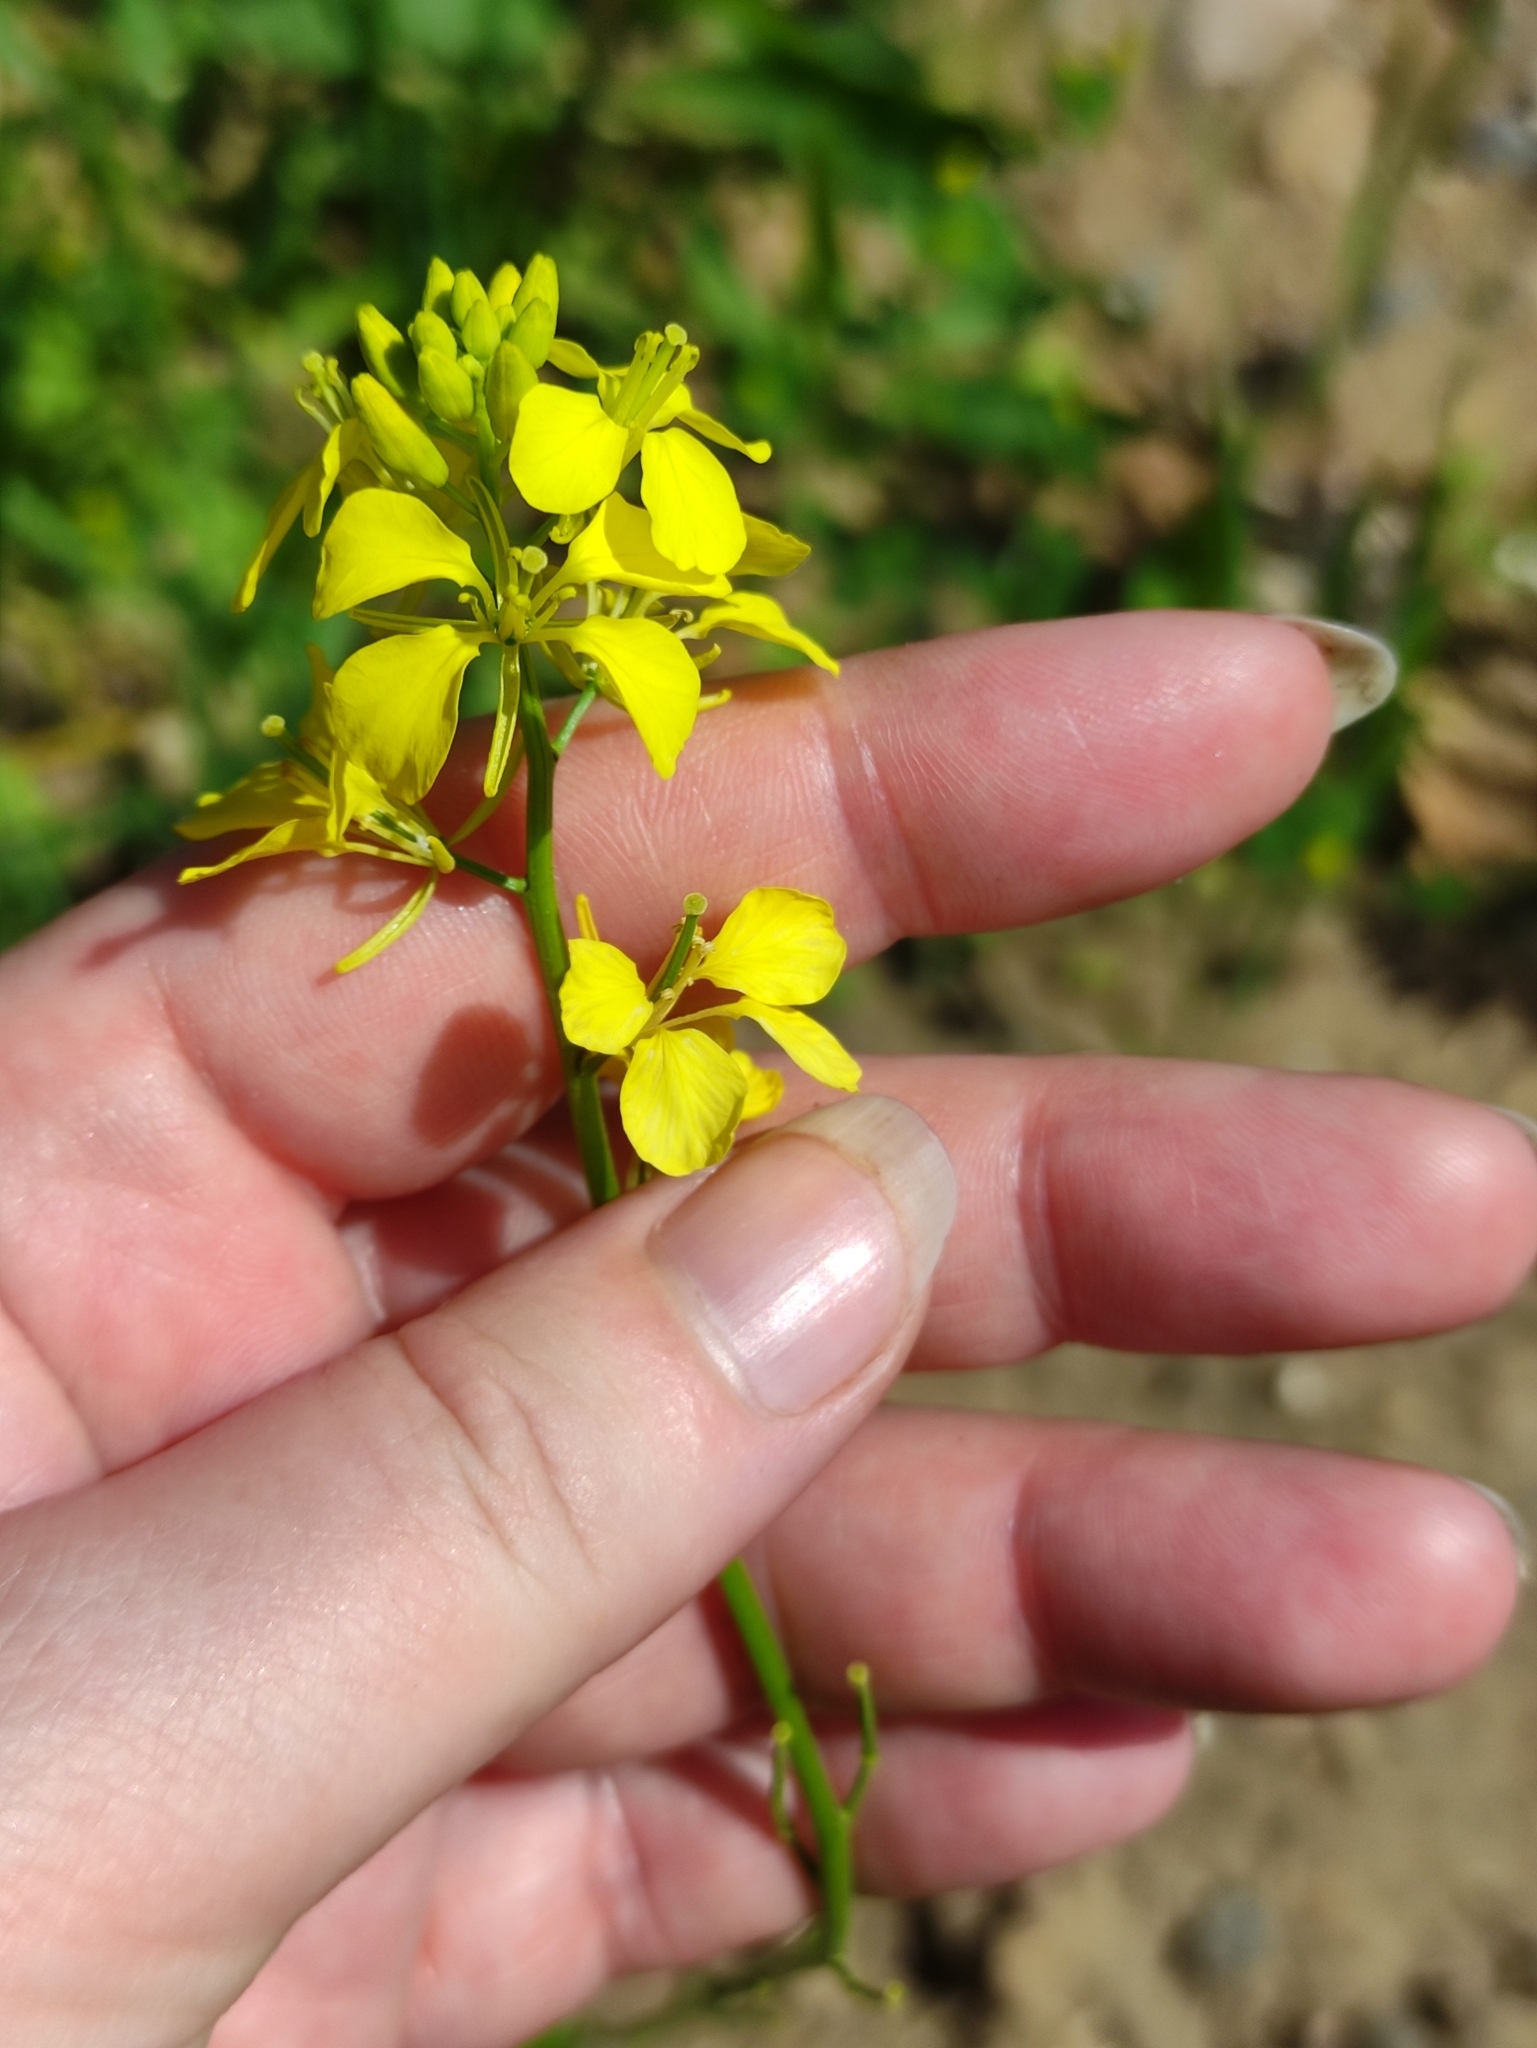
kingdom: Plantae
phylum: Tracheophyta
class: Magnoliopsida
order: Brassicales
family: Brassicaceae
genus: Sinapis
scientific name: Sinapis arvensis
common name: Charlock
